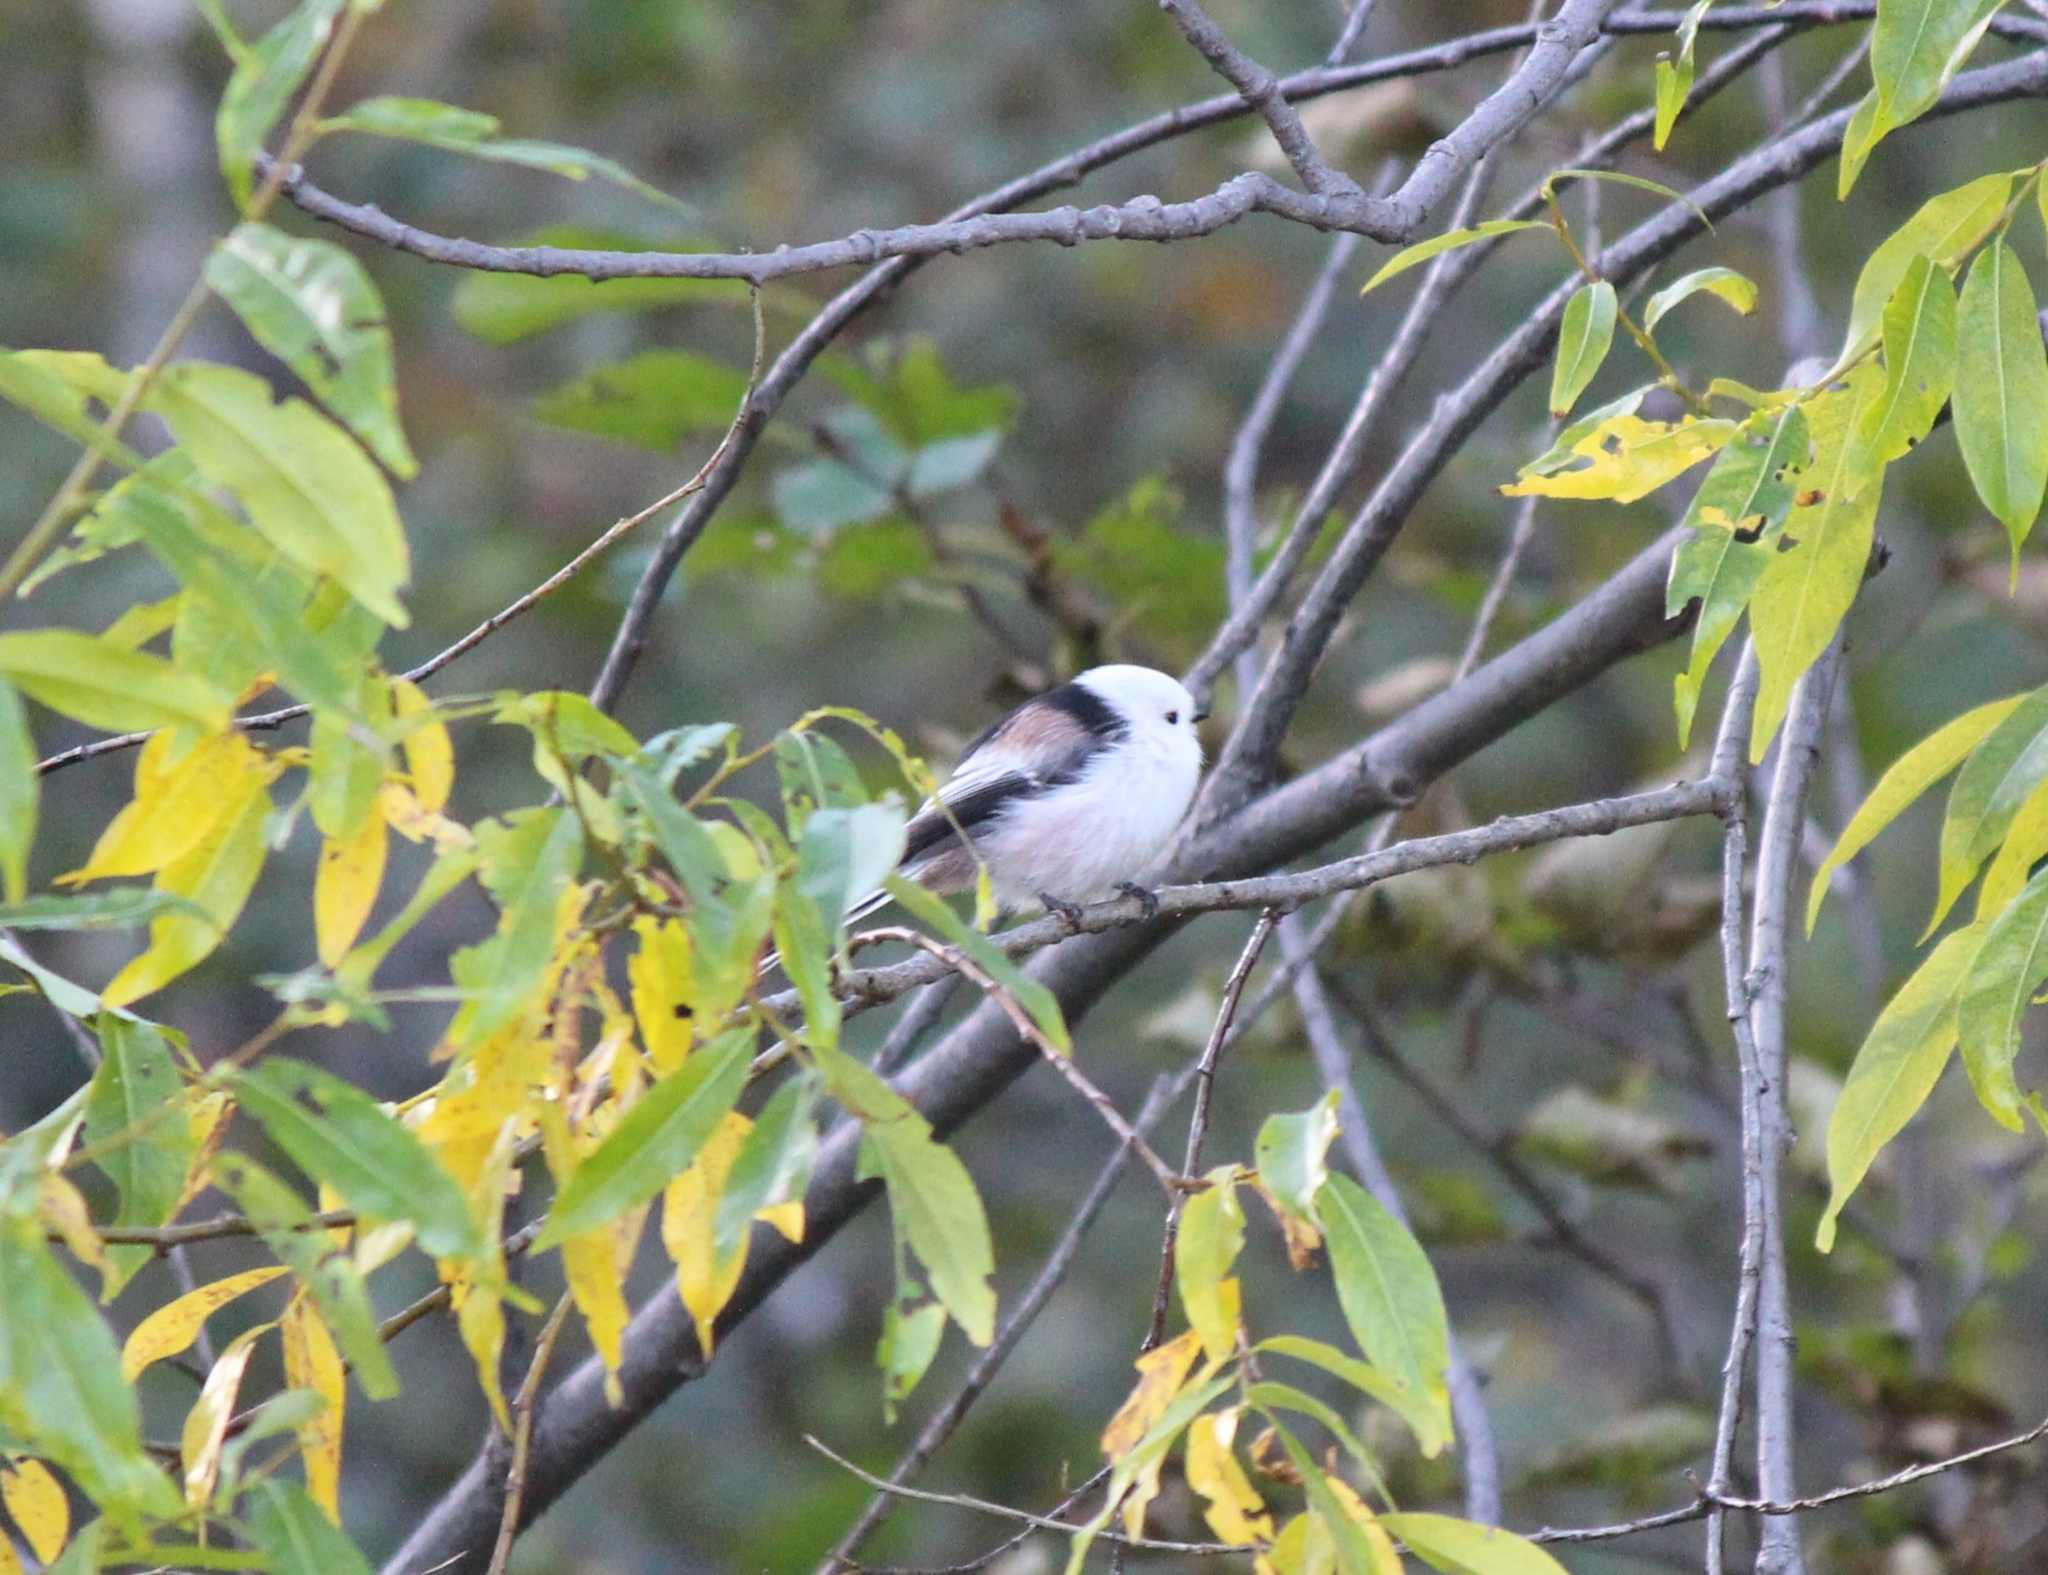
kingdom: Animalia
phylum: Chordata
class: Aves
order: Passeriformes
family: Aegithalidae
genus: Aegithalos
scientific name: Aegithalos caudatus
